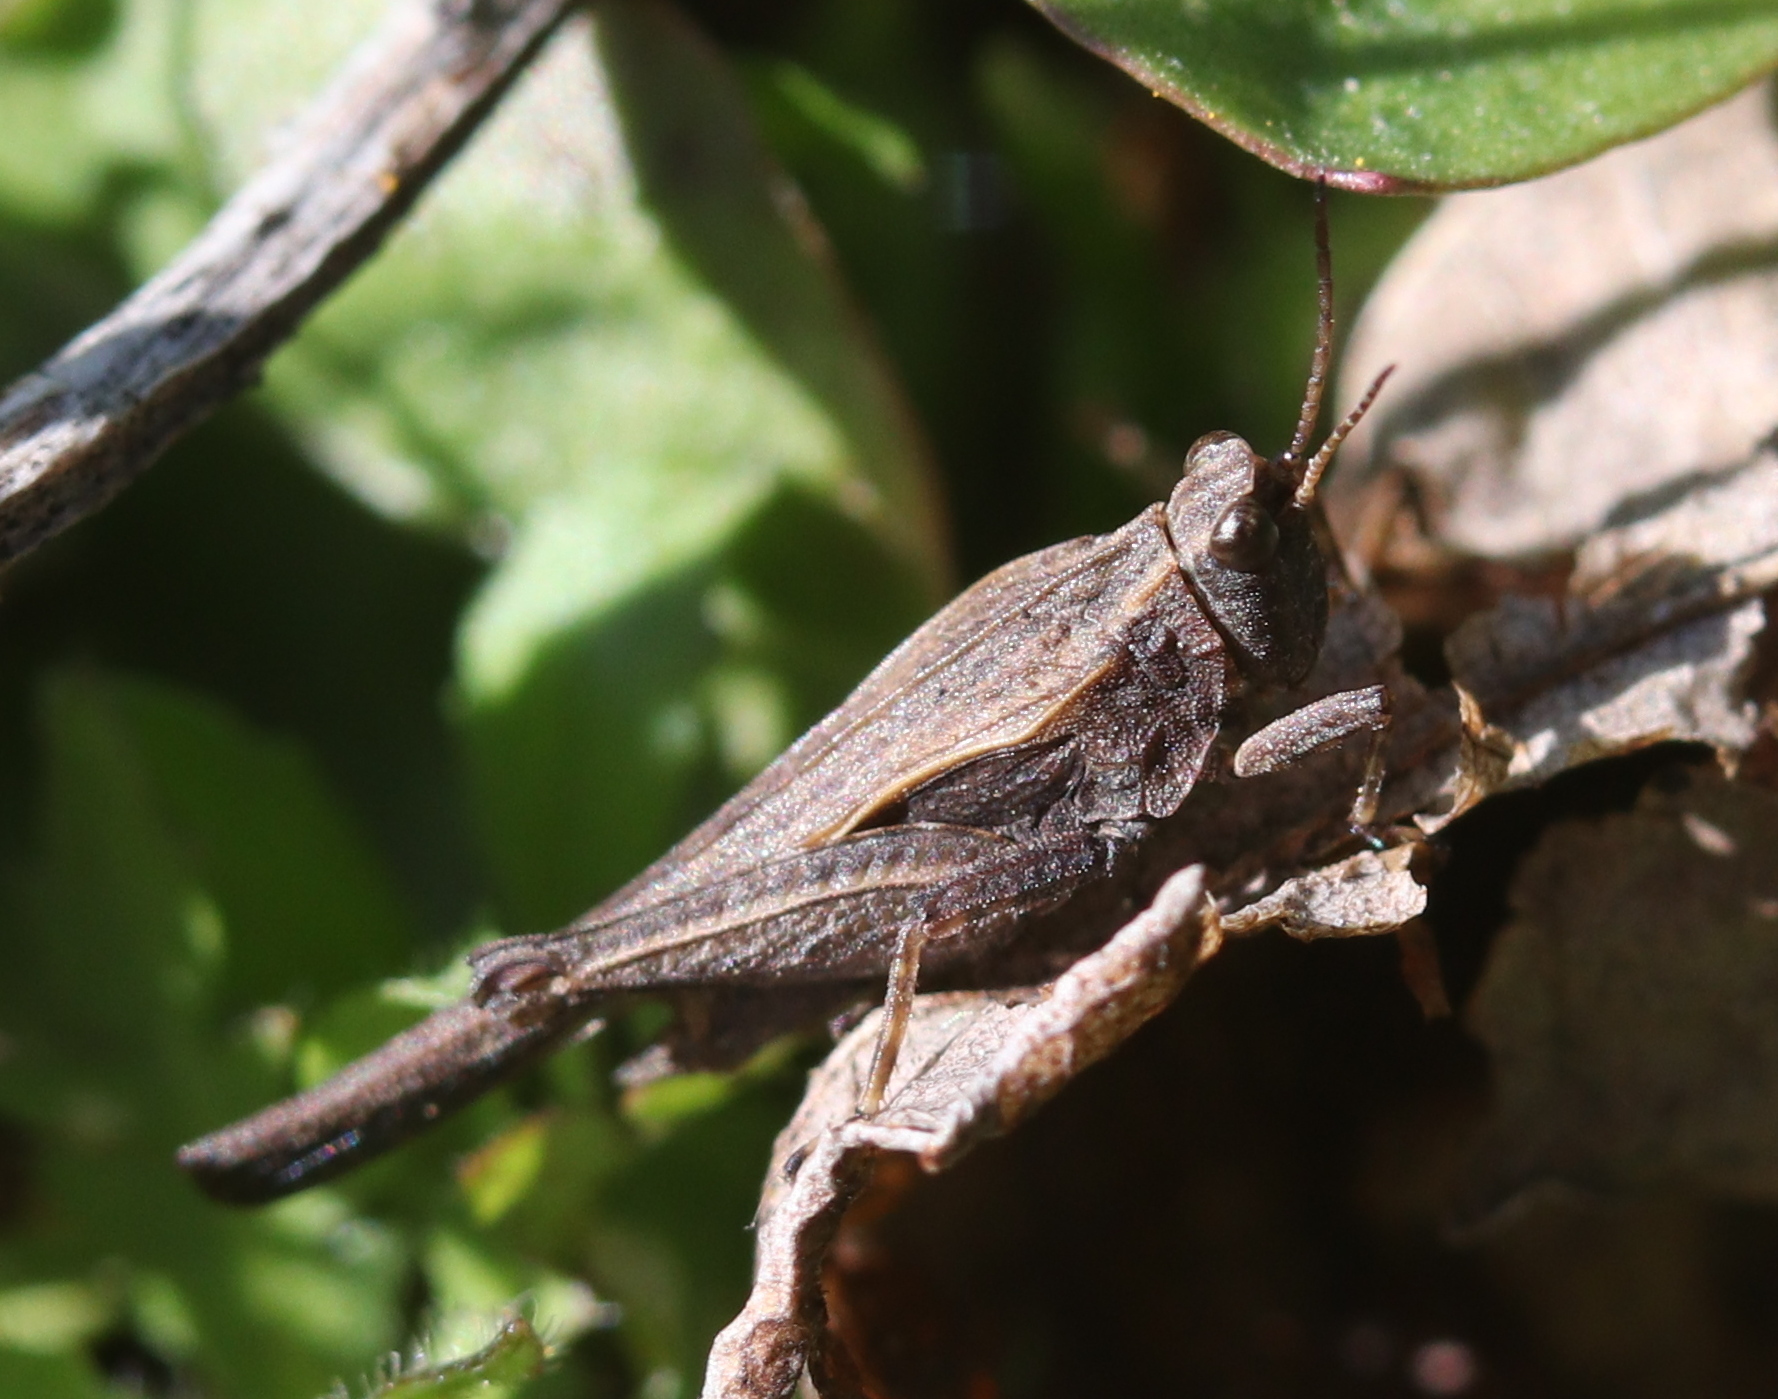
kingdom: Animalia
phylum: Arthropoda
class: Insecta
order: Orthoptera
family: Tetrigidae
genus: Tetrix
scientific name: Tetrix subulata
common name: Slender ground-hopper
